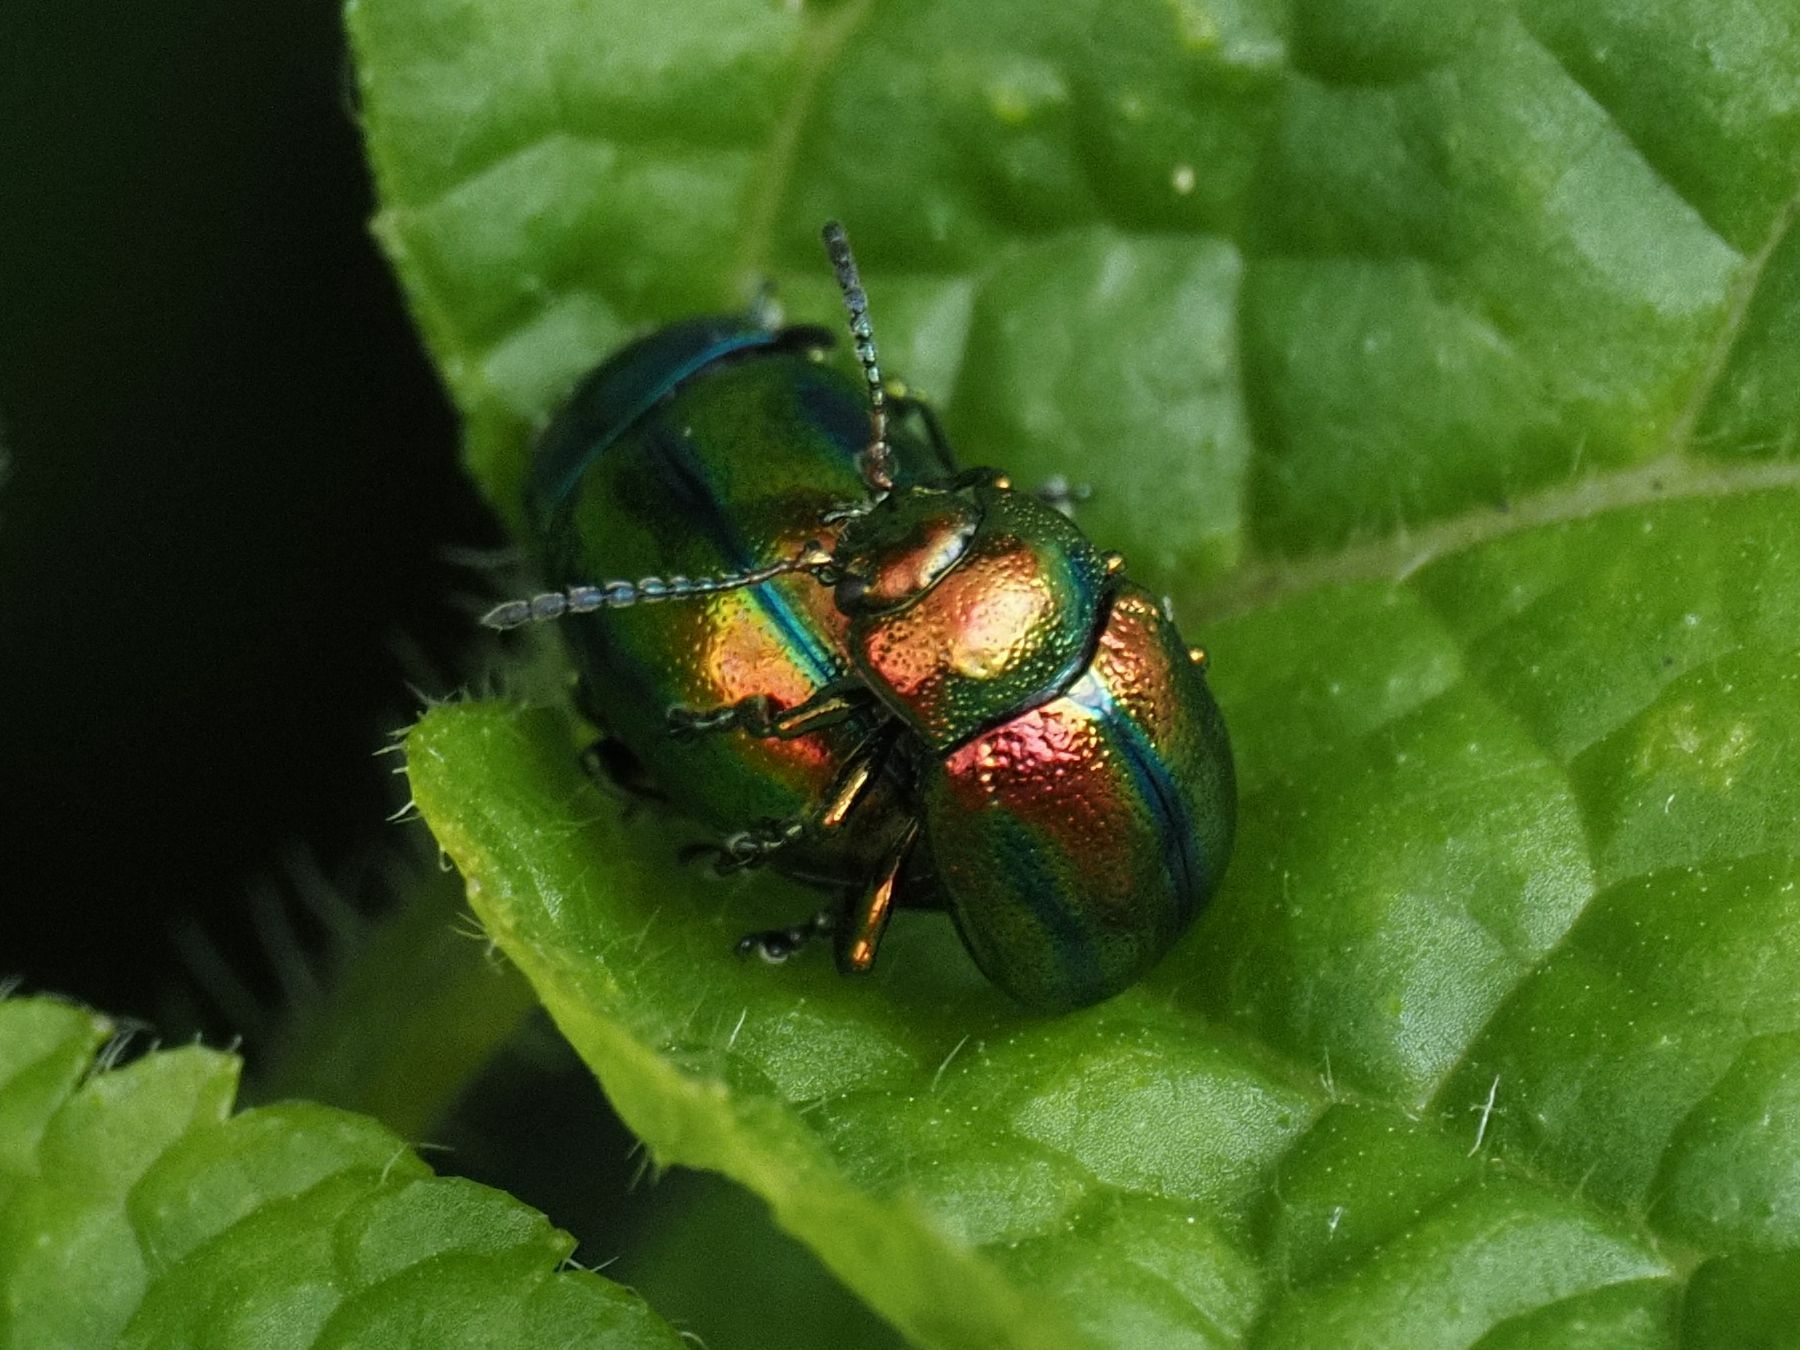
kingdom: Animalia
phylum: Arthropoda
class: Insecta
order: Coleoptera
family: Chrysomelidae
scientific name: Chrysomelidae
